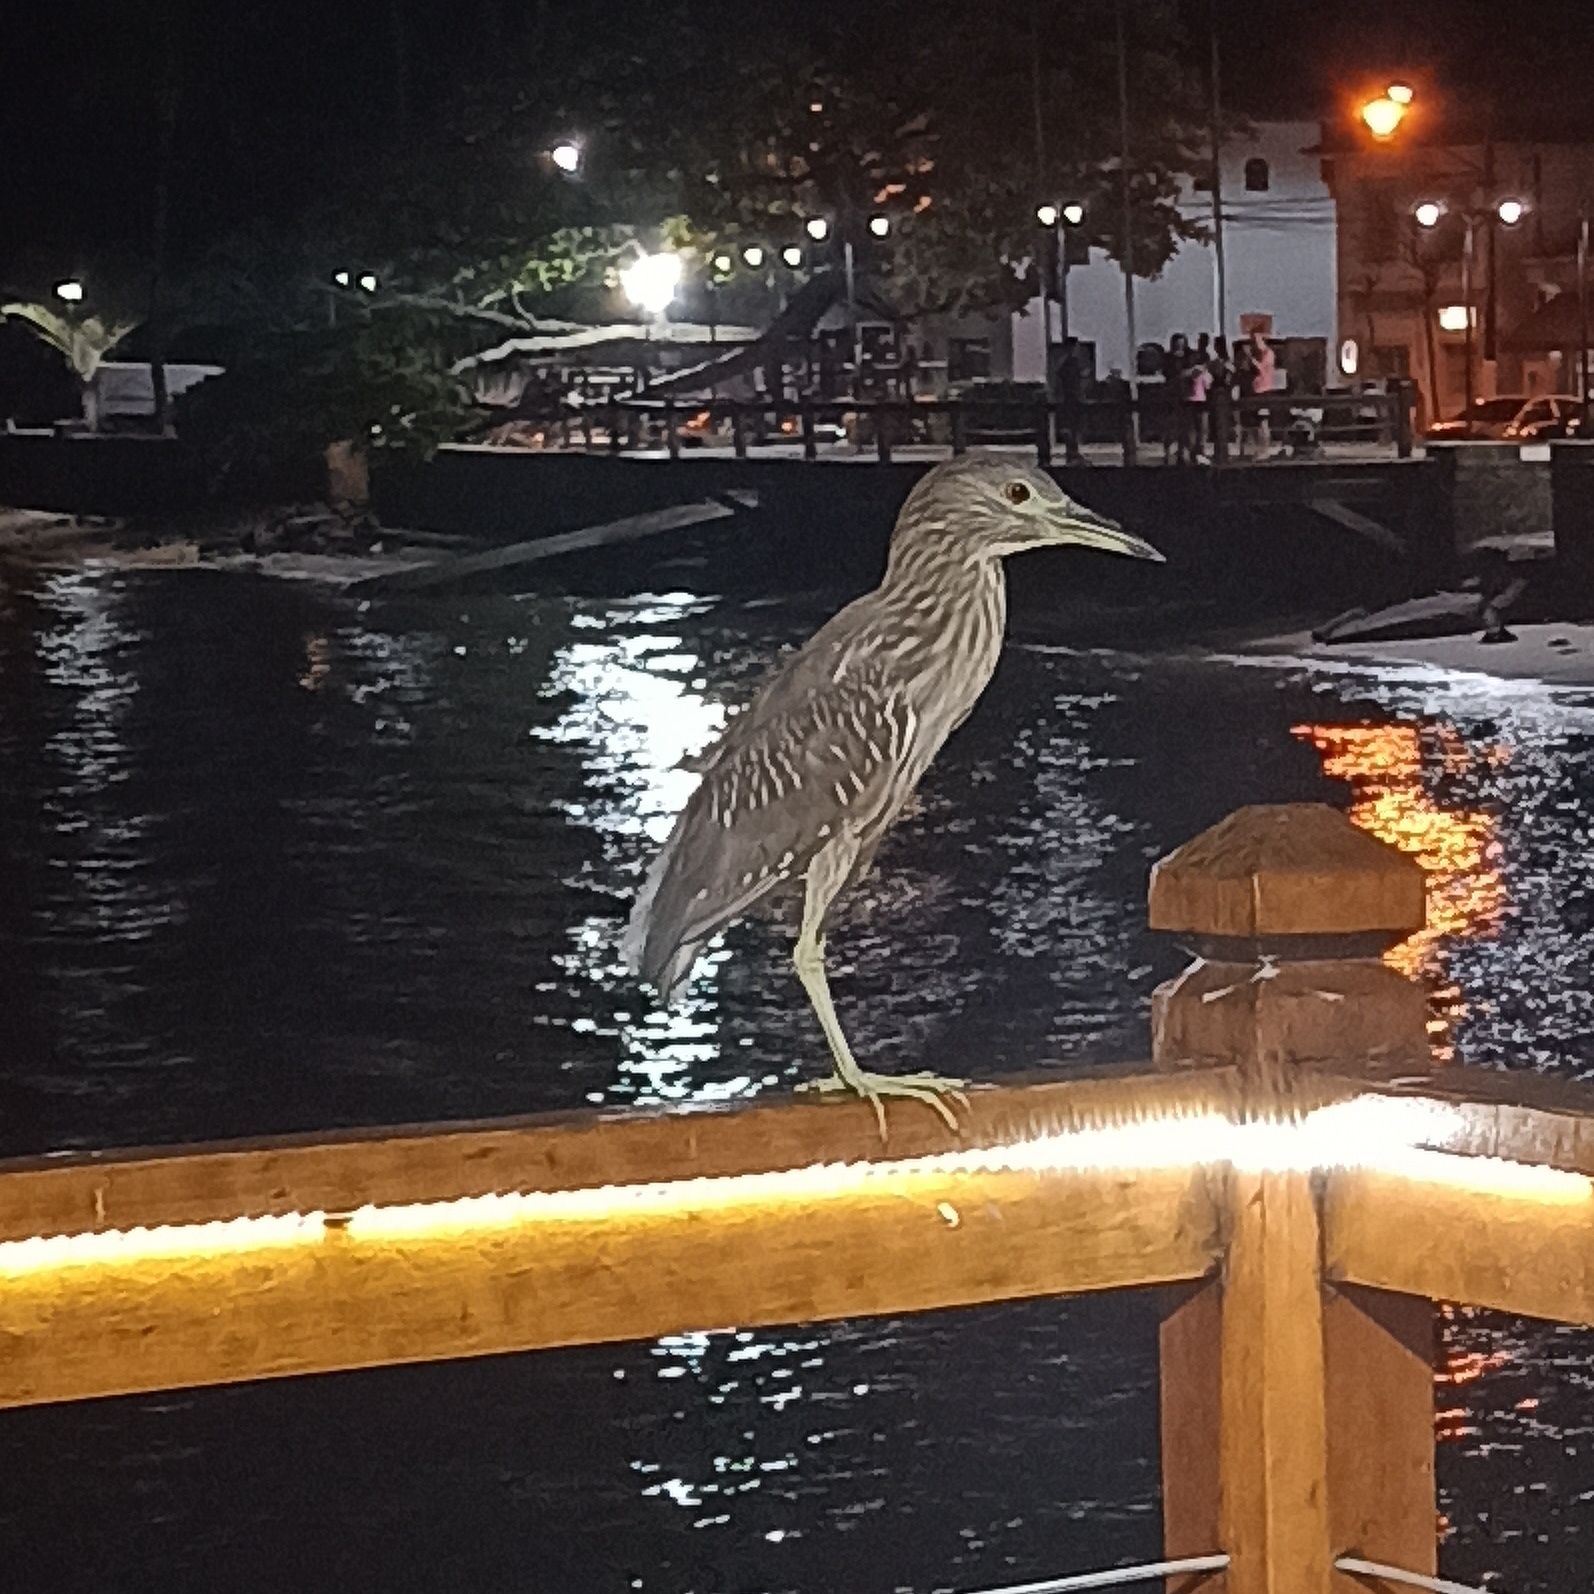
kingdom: Animalia
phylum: Chordata
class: Aves
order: Pelecaniformes
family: Ardeidae
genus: Nycticorax
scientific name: Nycticorax nycticorax
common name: Black-crowned night heron
